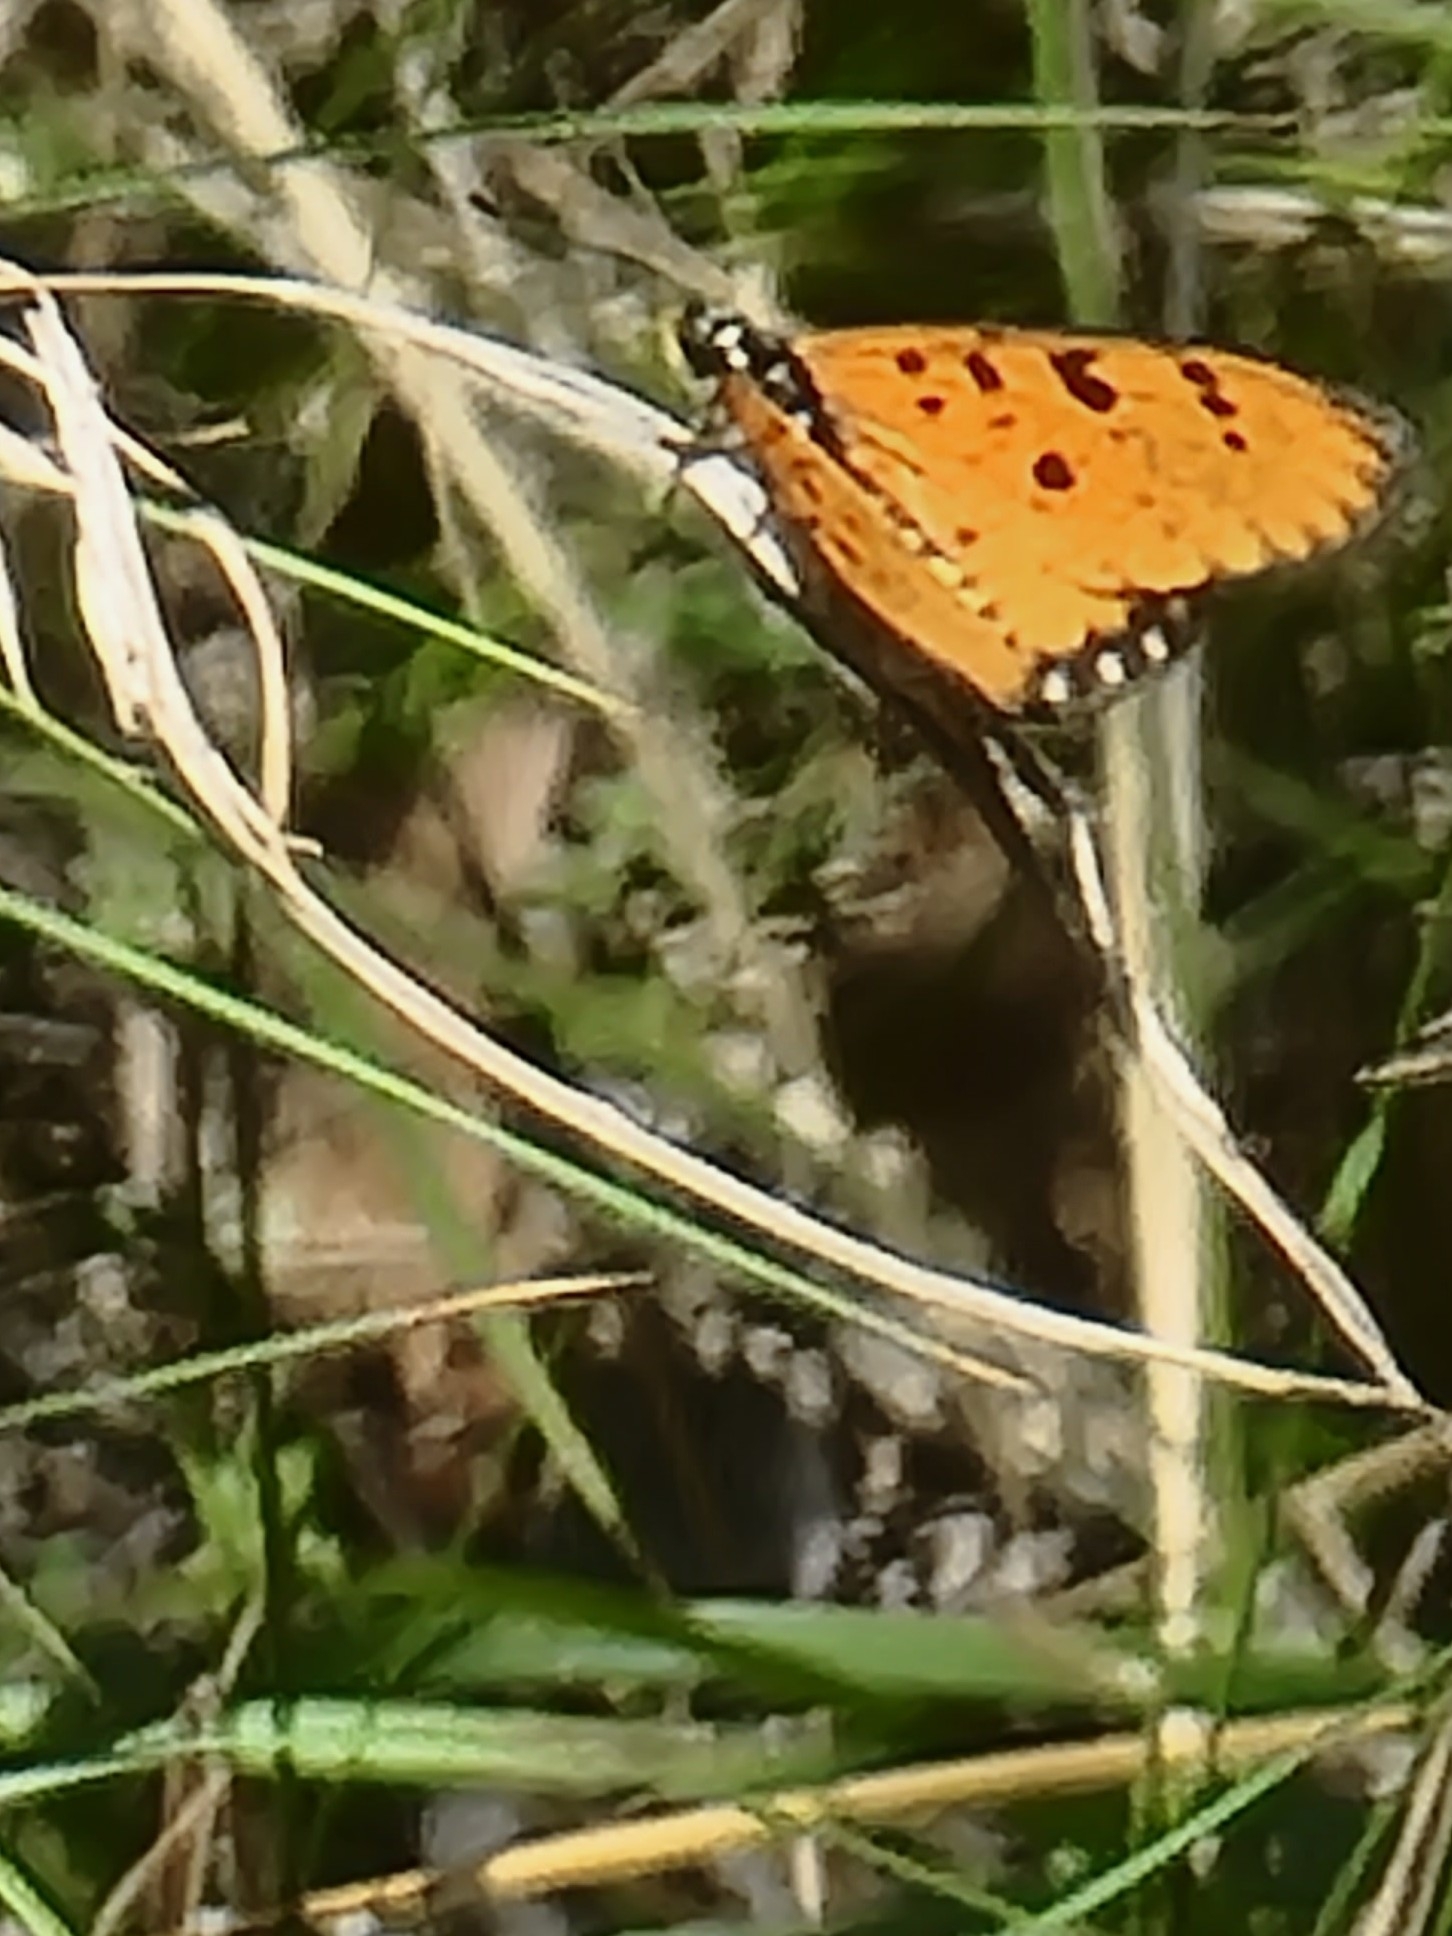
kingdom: Animalia
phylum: Arthropoda
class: Insecta
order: Lepidoptera
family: Nymphalidae
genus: Acraea
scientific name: Acraea terpsicore
